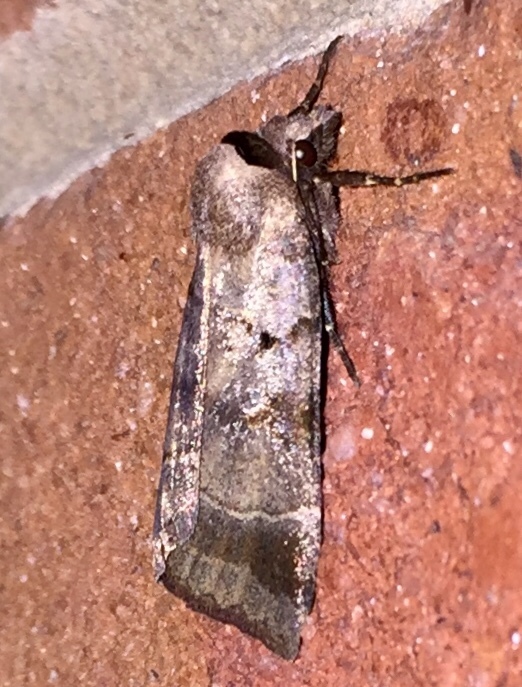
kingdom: Animalia
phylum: Arthropoda
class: Insecta
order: Lepidoptera
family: Noctuidae
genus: Agnorisma
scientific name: Agnorisma badinodis
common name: Pale-banded dart
